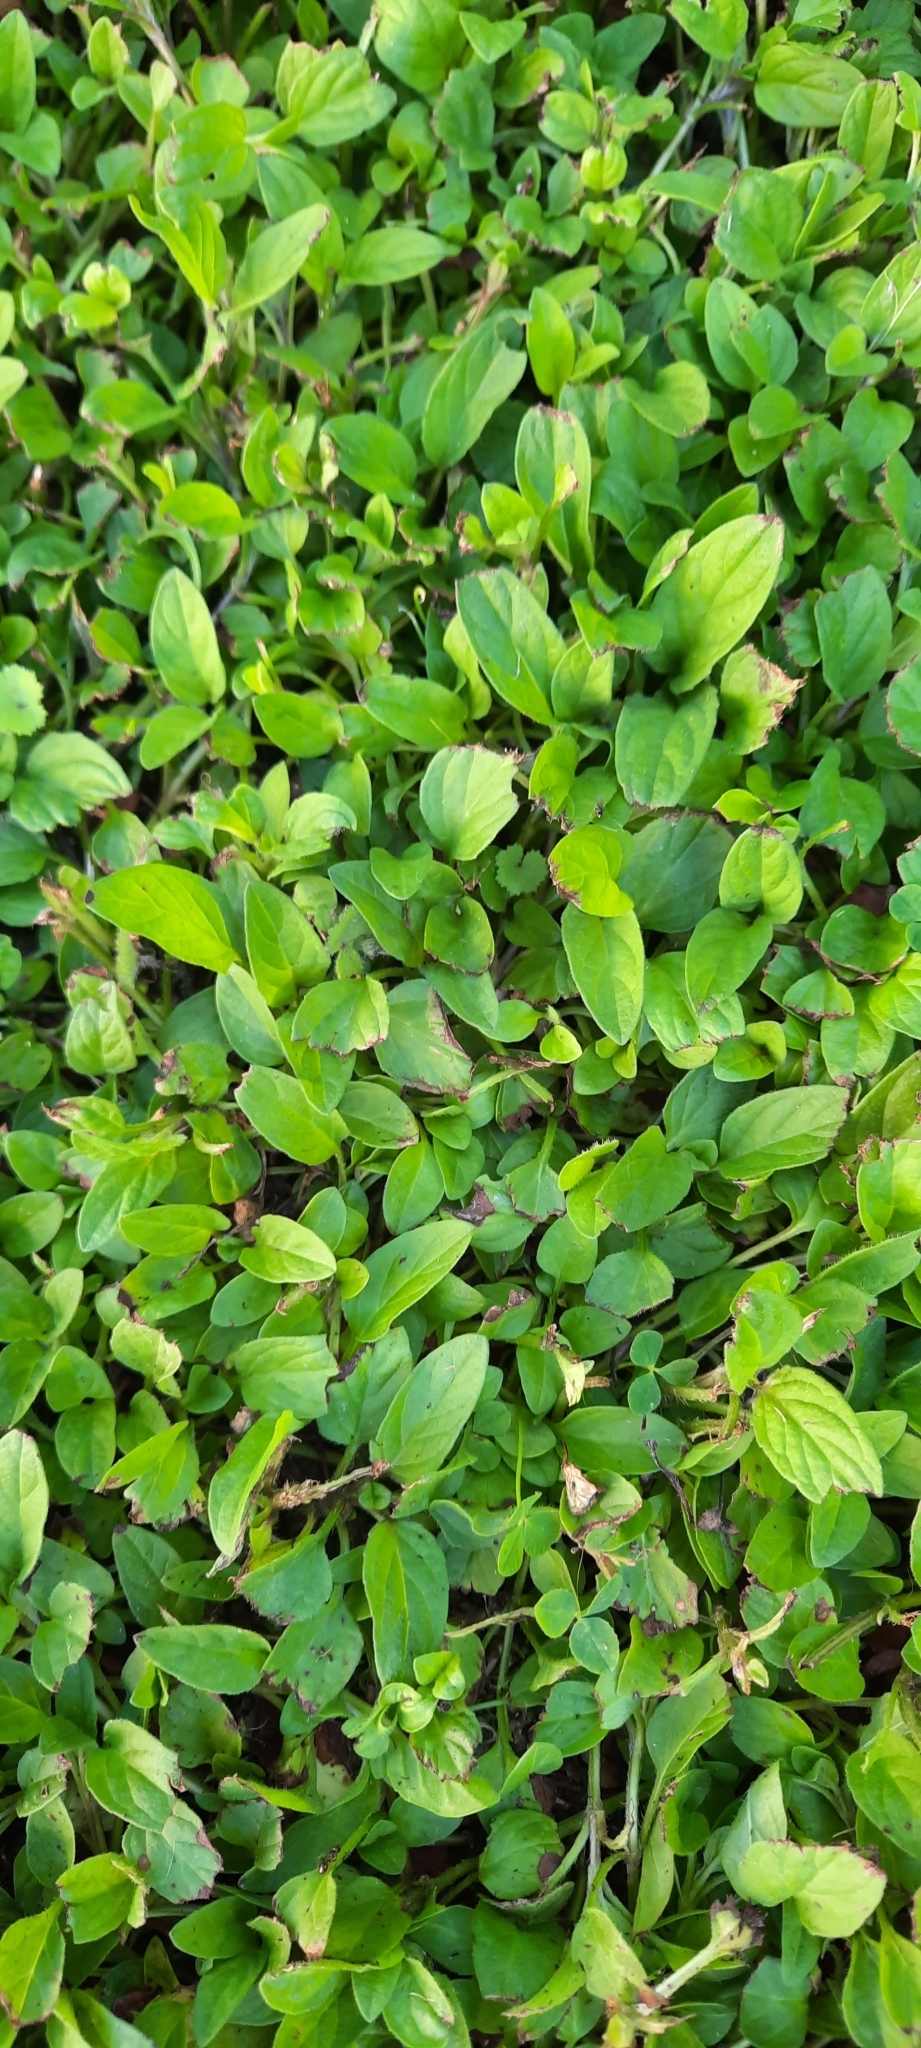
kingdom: Plantae
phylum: Tracheophyta
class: Magnoliopsida
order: Lamiales
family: Lamiaceae
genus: Prunella
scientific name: Prunella vulgaris
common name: Heal-all
